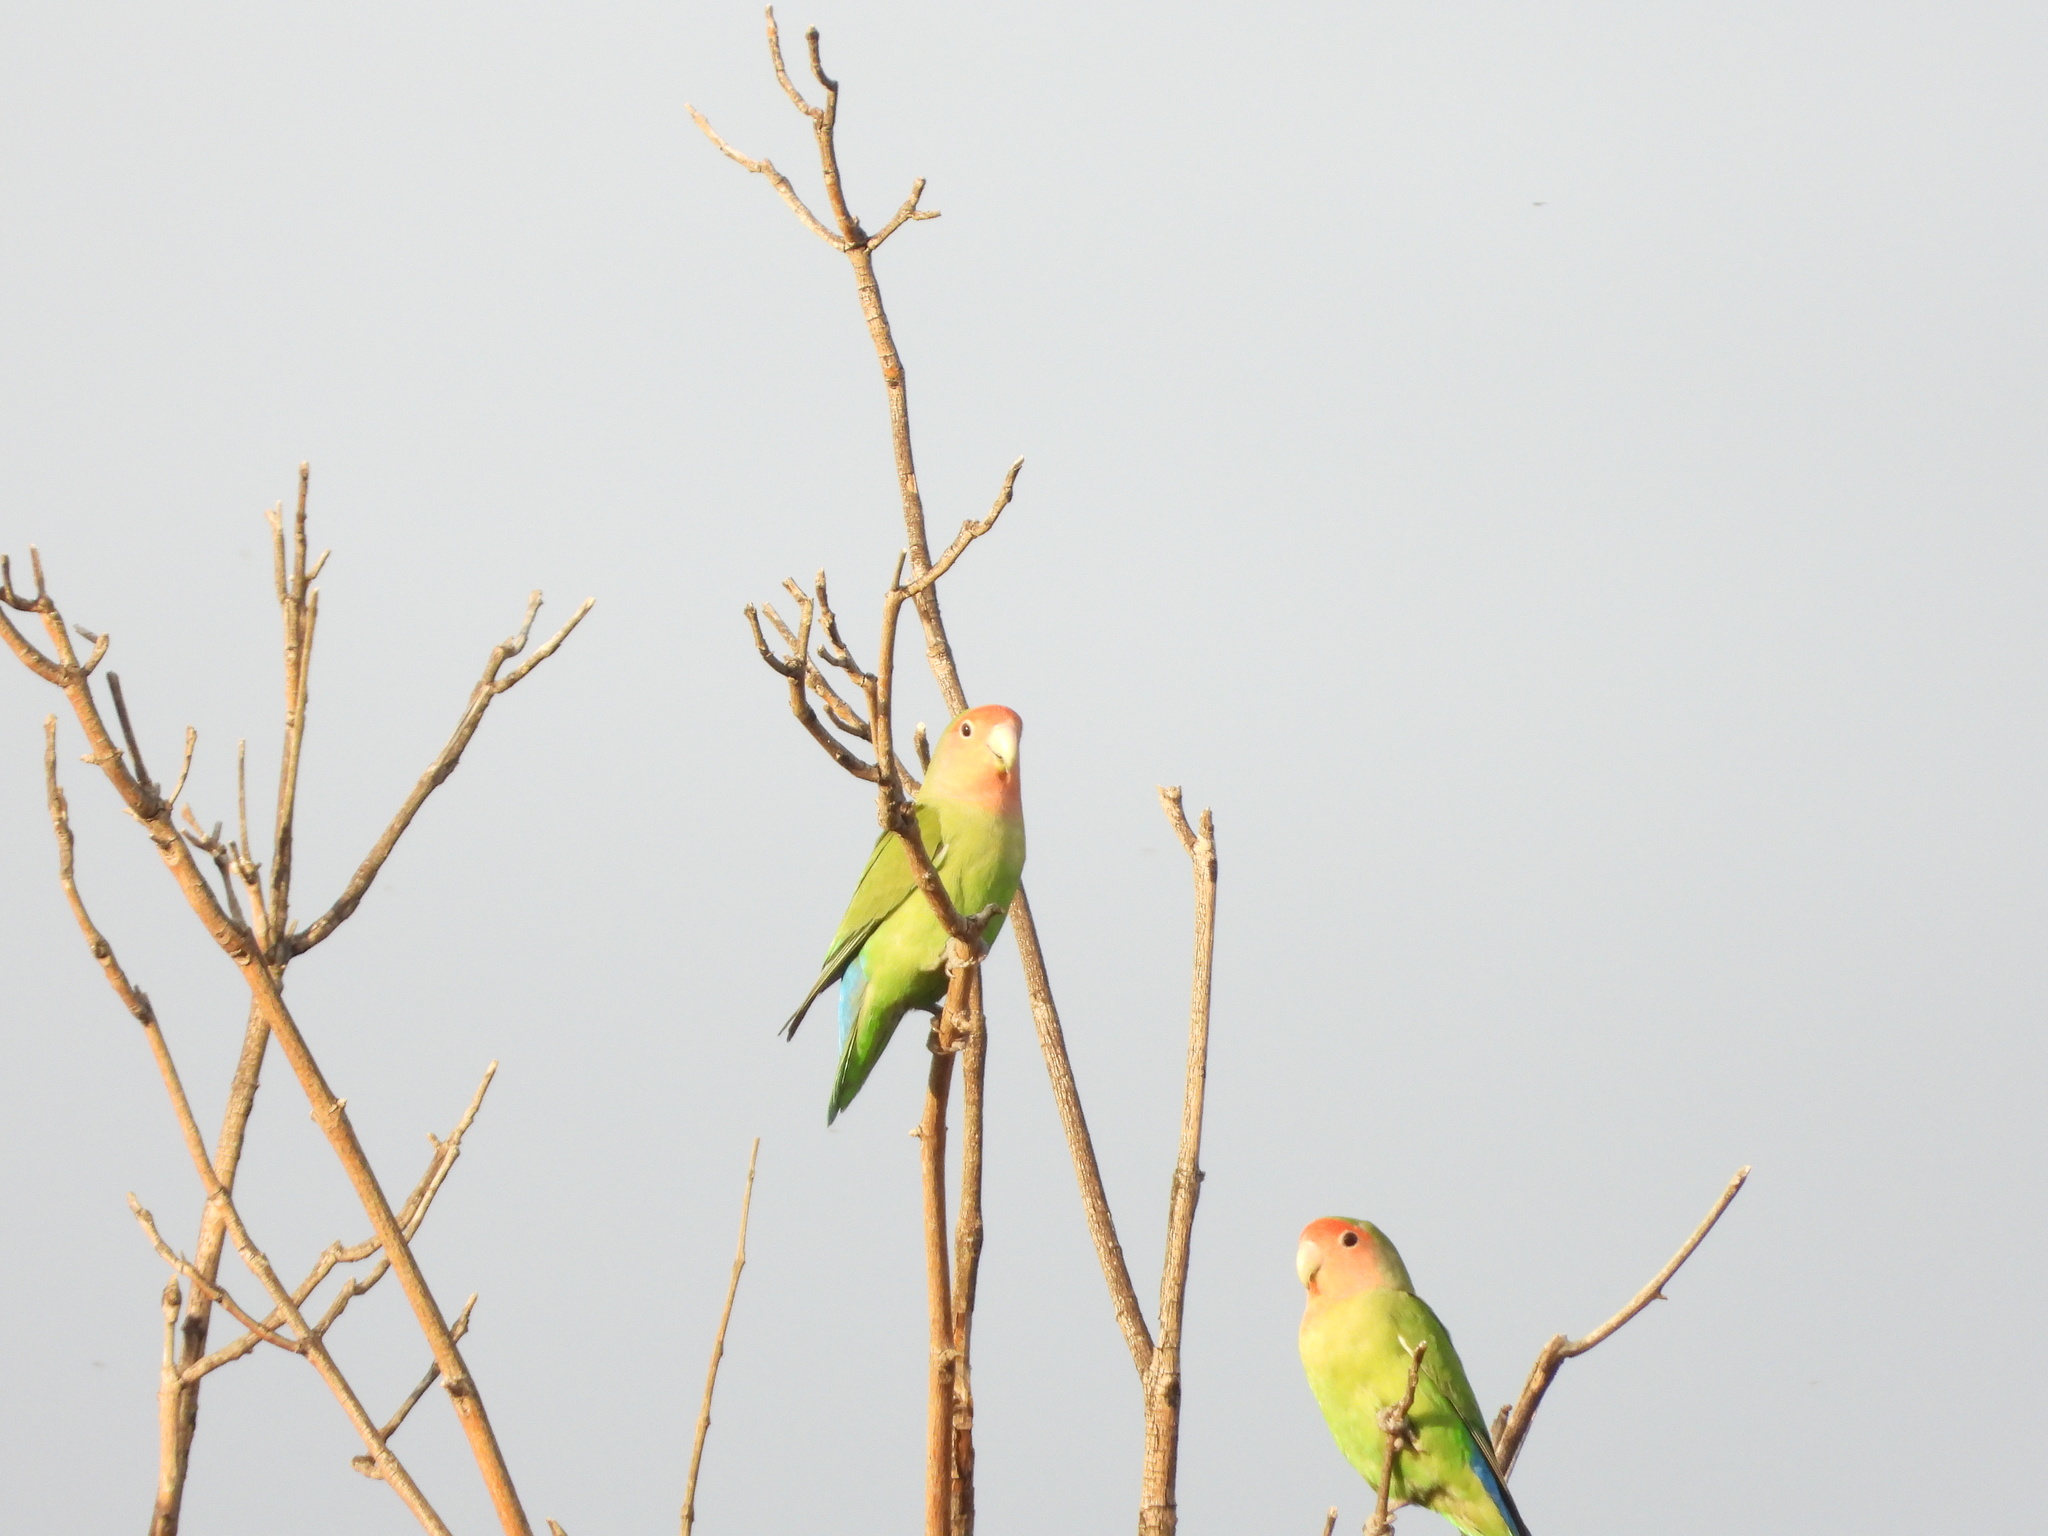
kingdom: Animalia
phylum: Chordata
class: Aves
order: Psittaciformes
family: Psittacidae
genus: Agapornis
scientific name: Agapornis roseicollis
